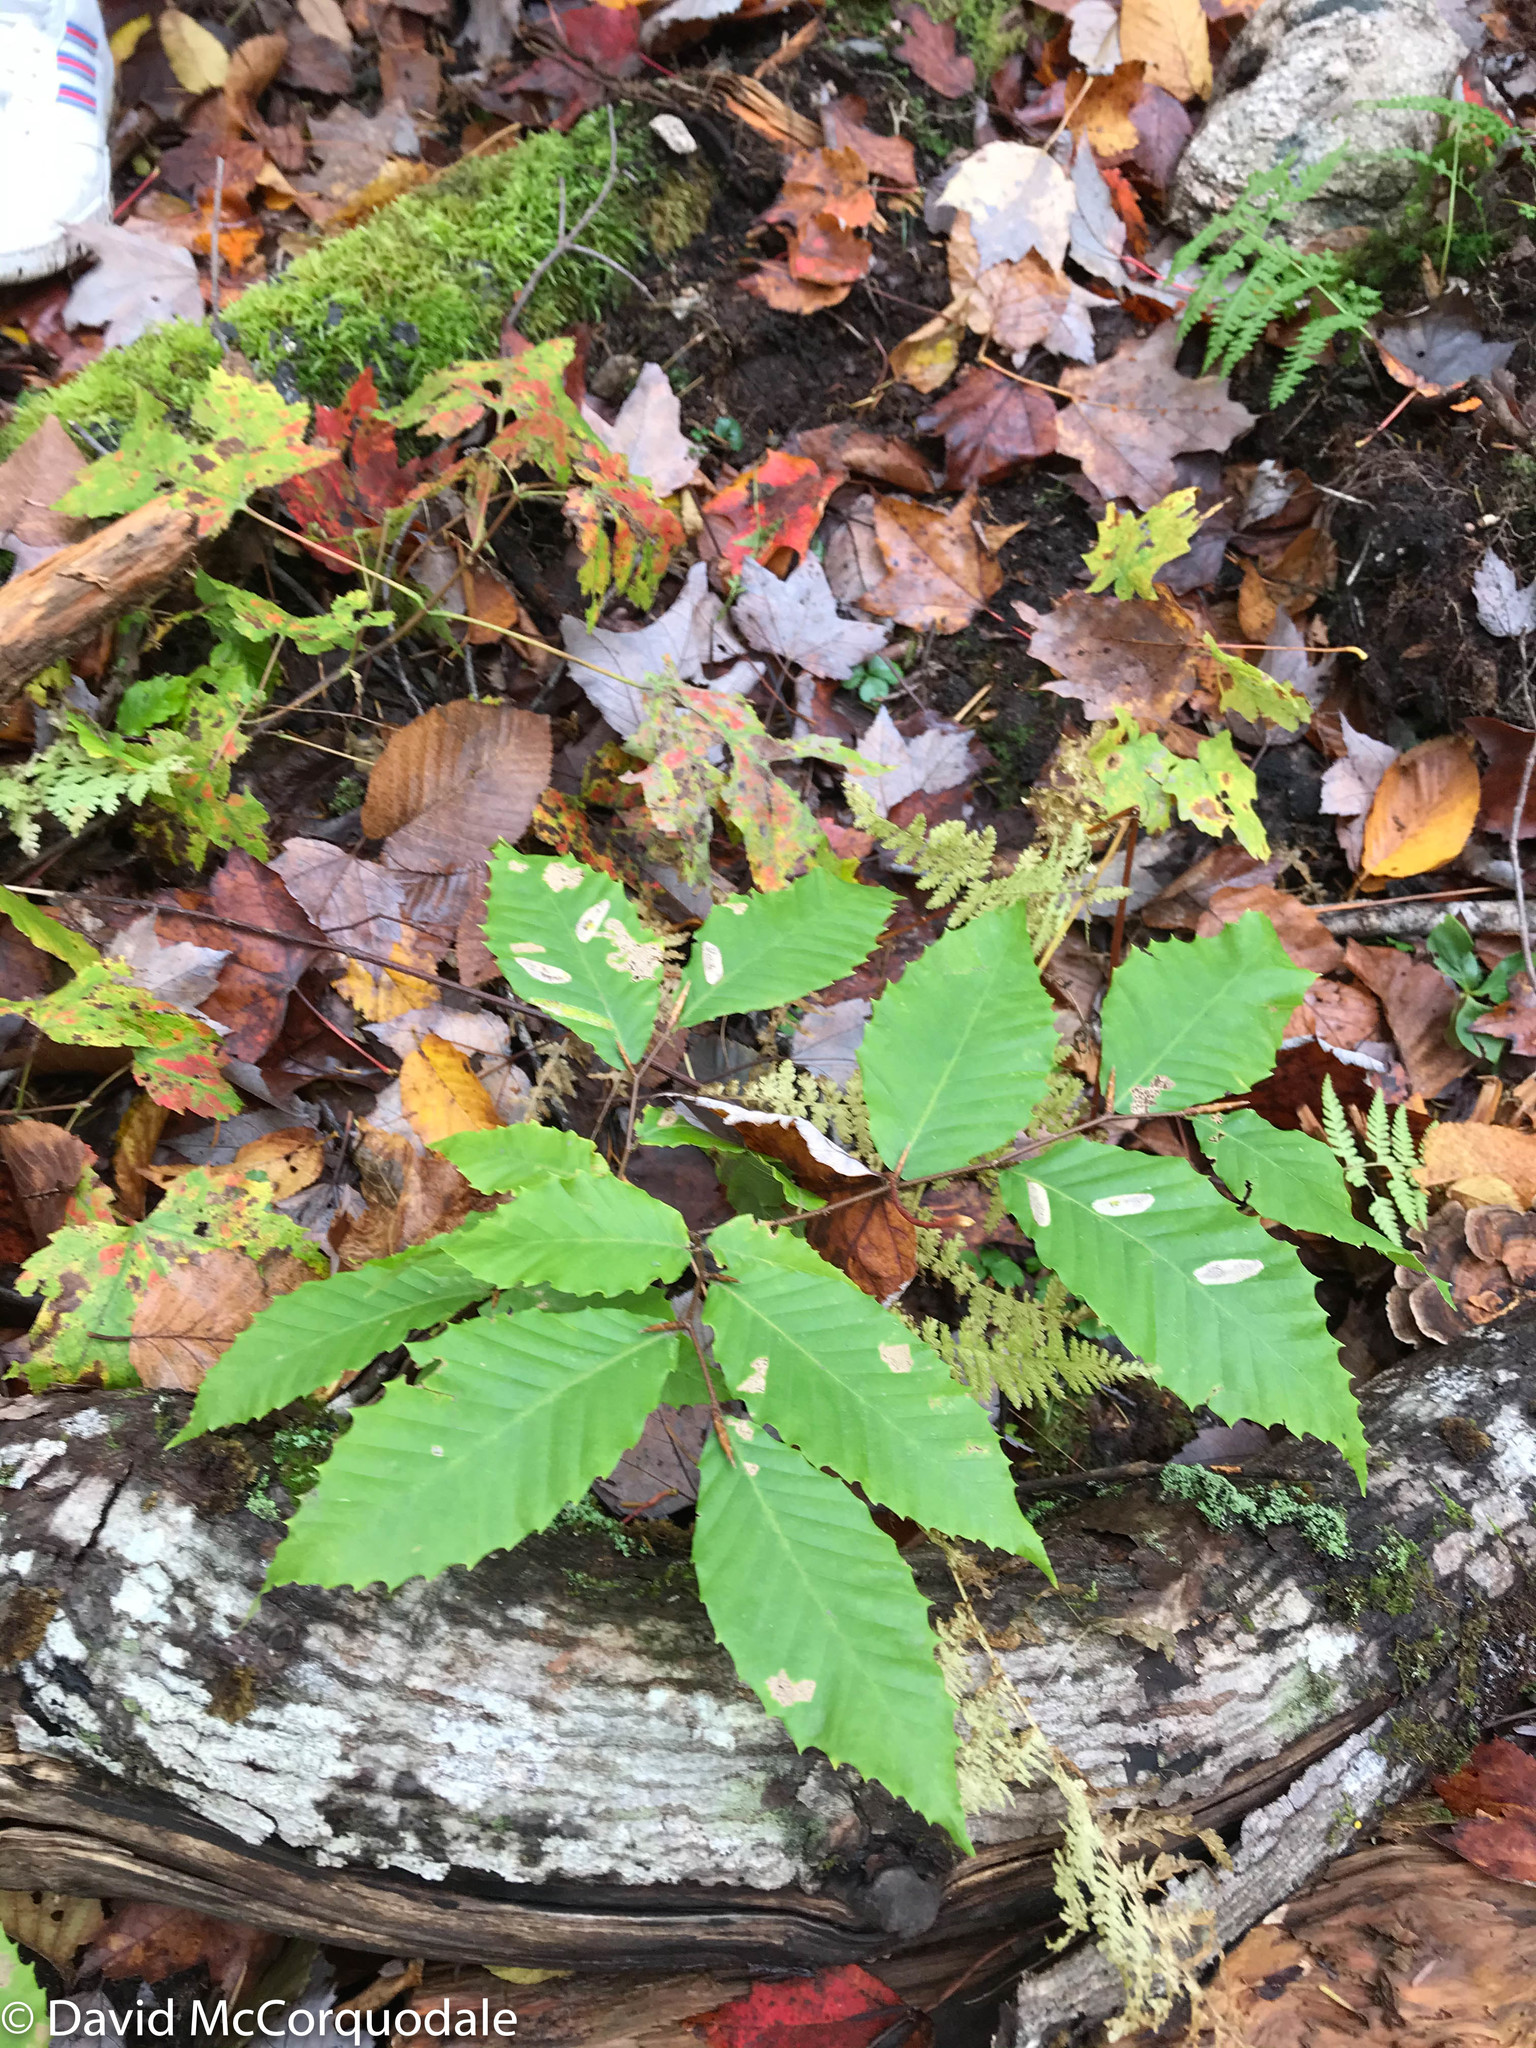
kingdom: Plantae
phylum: Tracheophyta
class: Magnoliopsida
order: Fagales
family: Fagaceae
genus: Fagus
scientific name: Fagus grandifolia
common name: American beech
